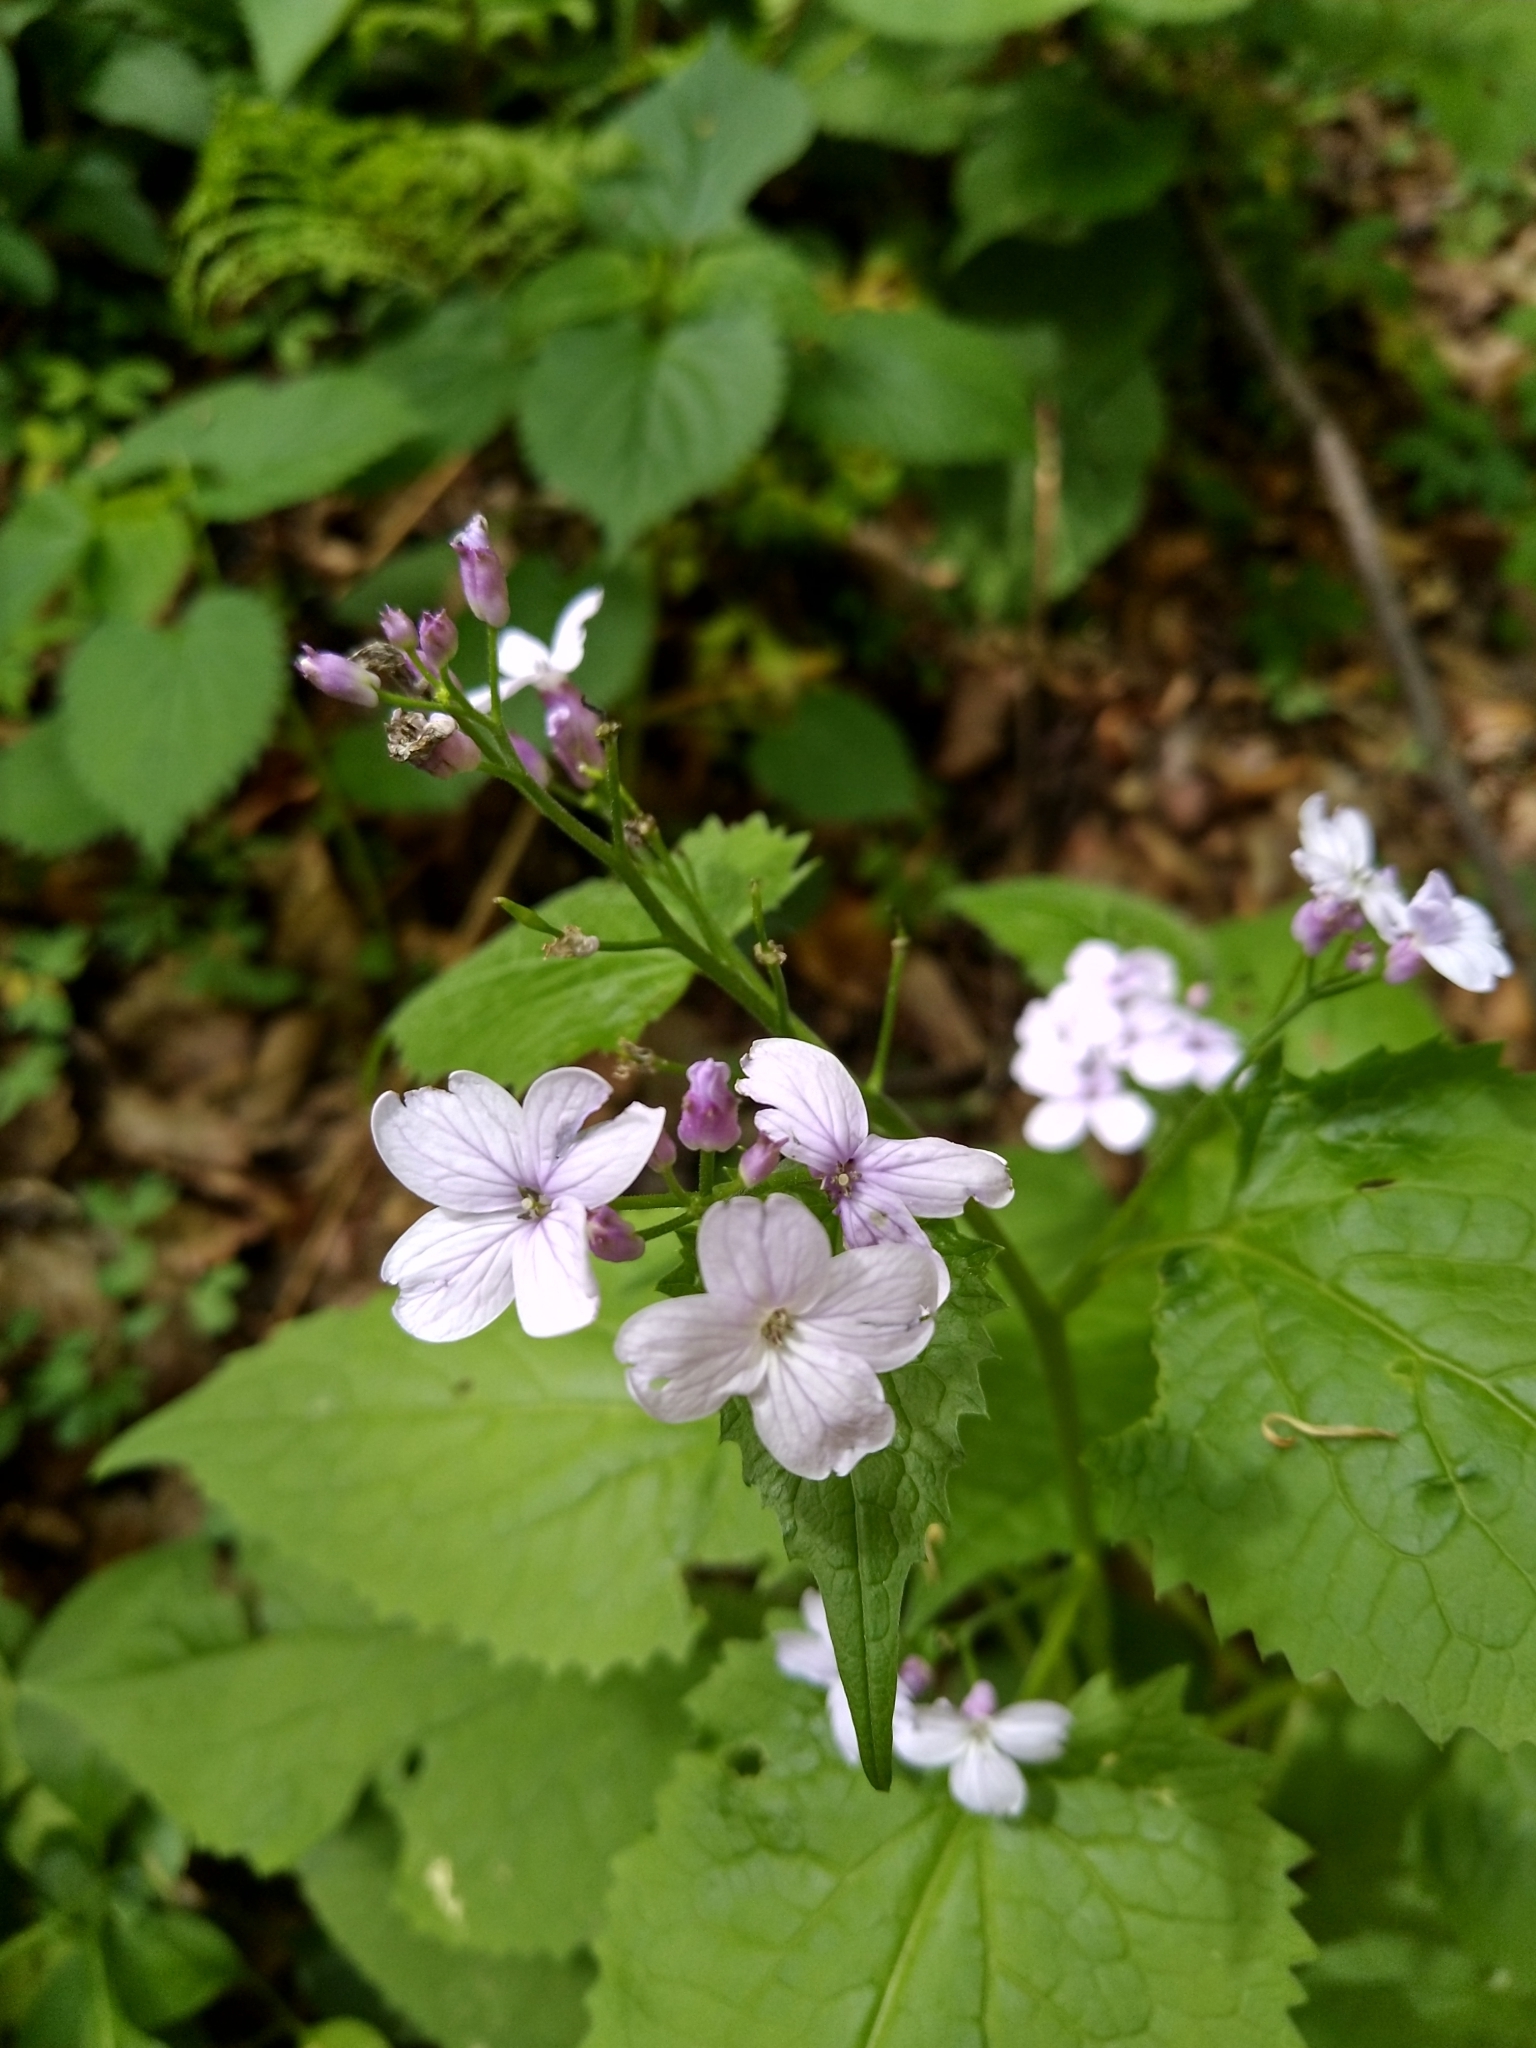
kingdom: Plantae
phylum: Tracheophyta
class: Magnoliopsida
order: Brassicales
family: Brassicaceae
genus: Lunaria
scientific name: Lunaria rediviva
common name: Perennial honesty
